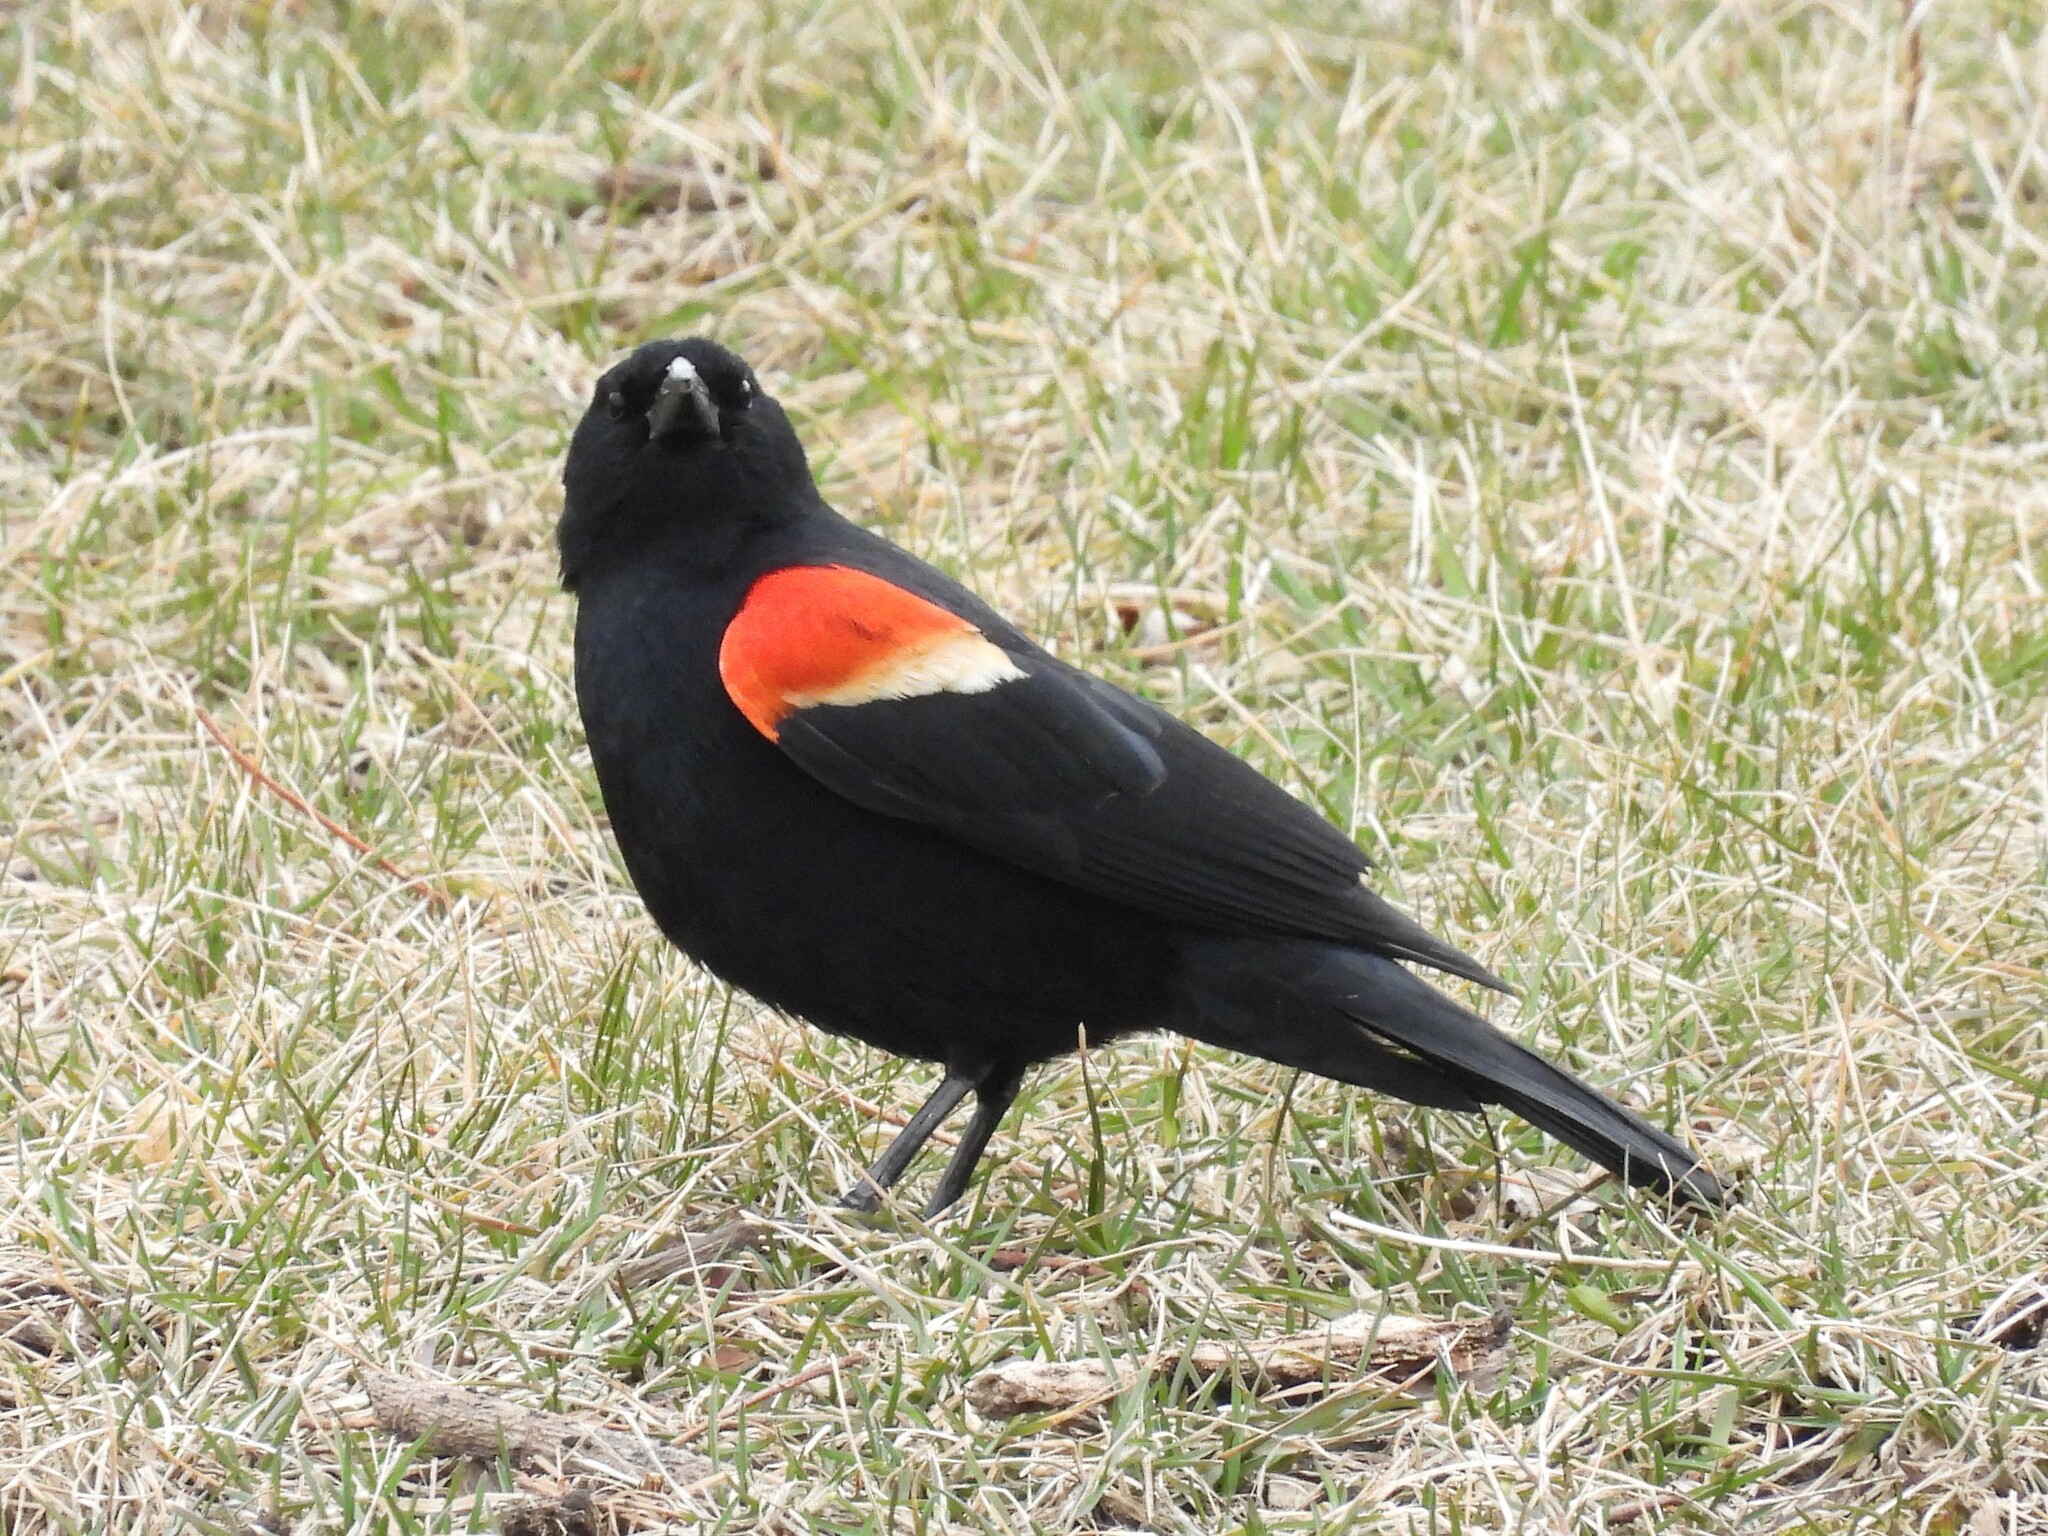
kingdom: Animalia
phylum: Chordata
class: Aves
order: Passeriformes
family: Icteridae
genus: Agelaius
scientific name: Agelaius phoeniceus
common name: Red-winged blackbird
